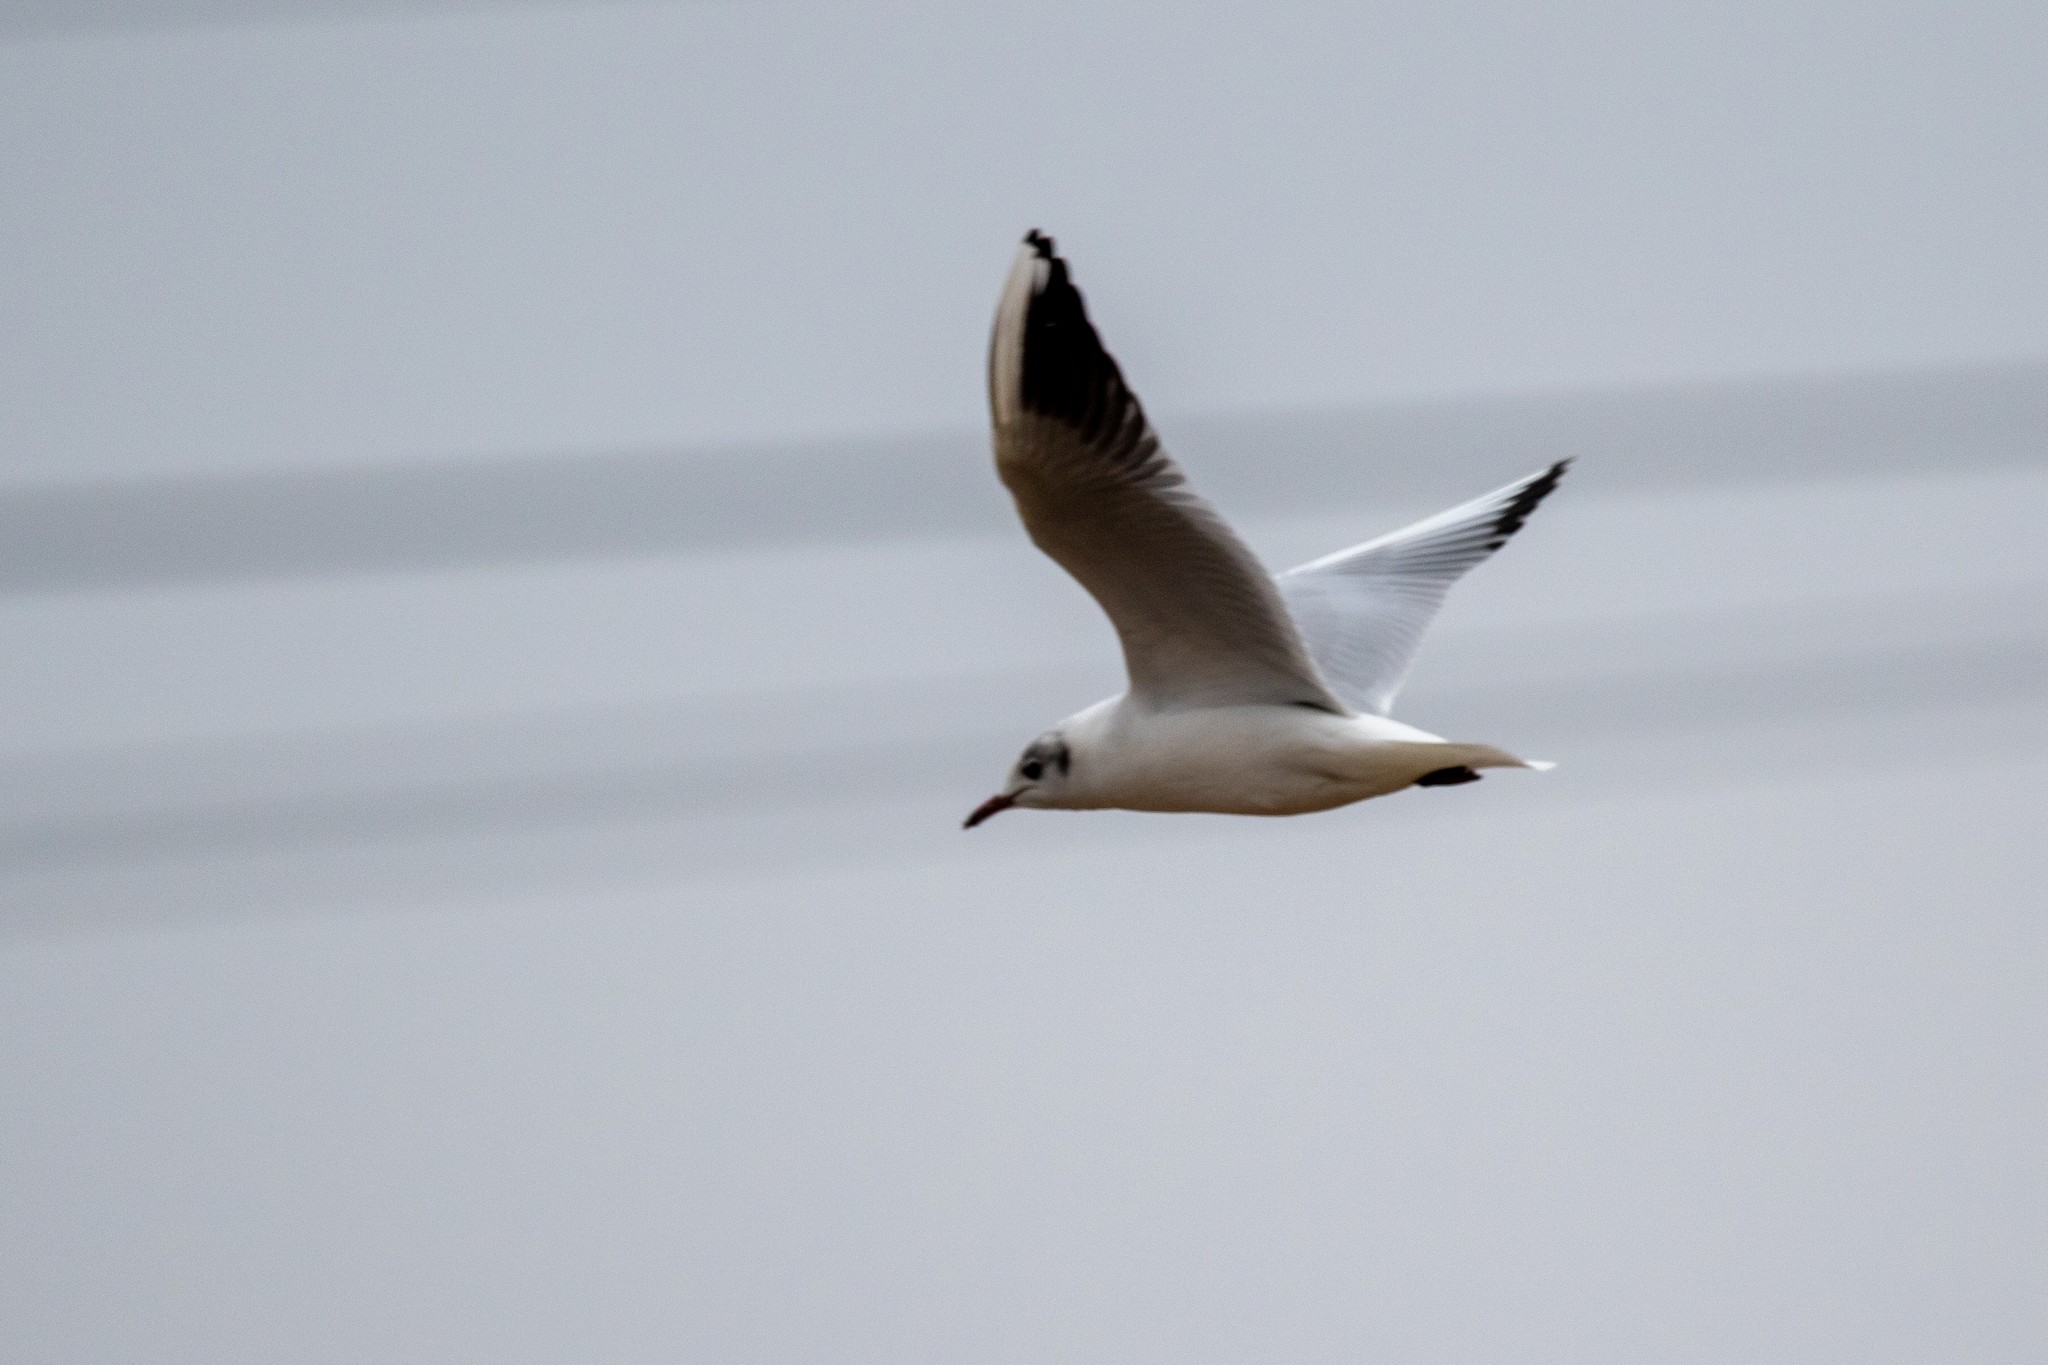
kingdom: Animalia
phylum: Chordata
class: Aves
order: Charadriiformes
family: Laridae
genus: Chroicocephalus
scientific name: Chroicocephalus ridibundus
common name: Black-headed gull
